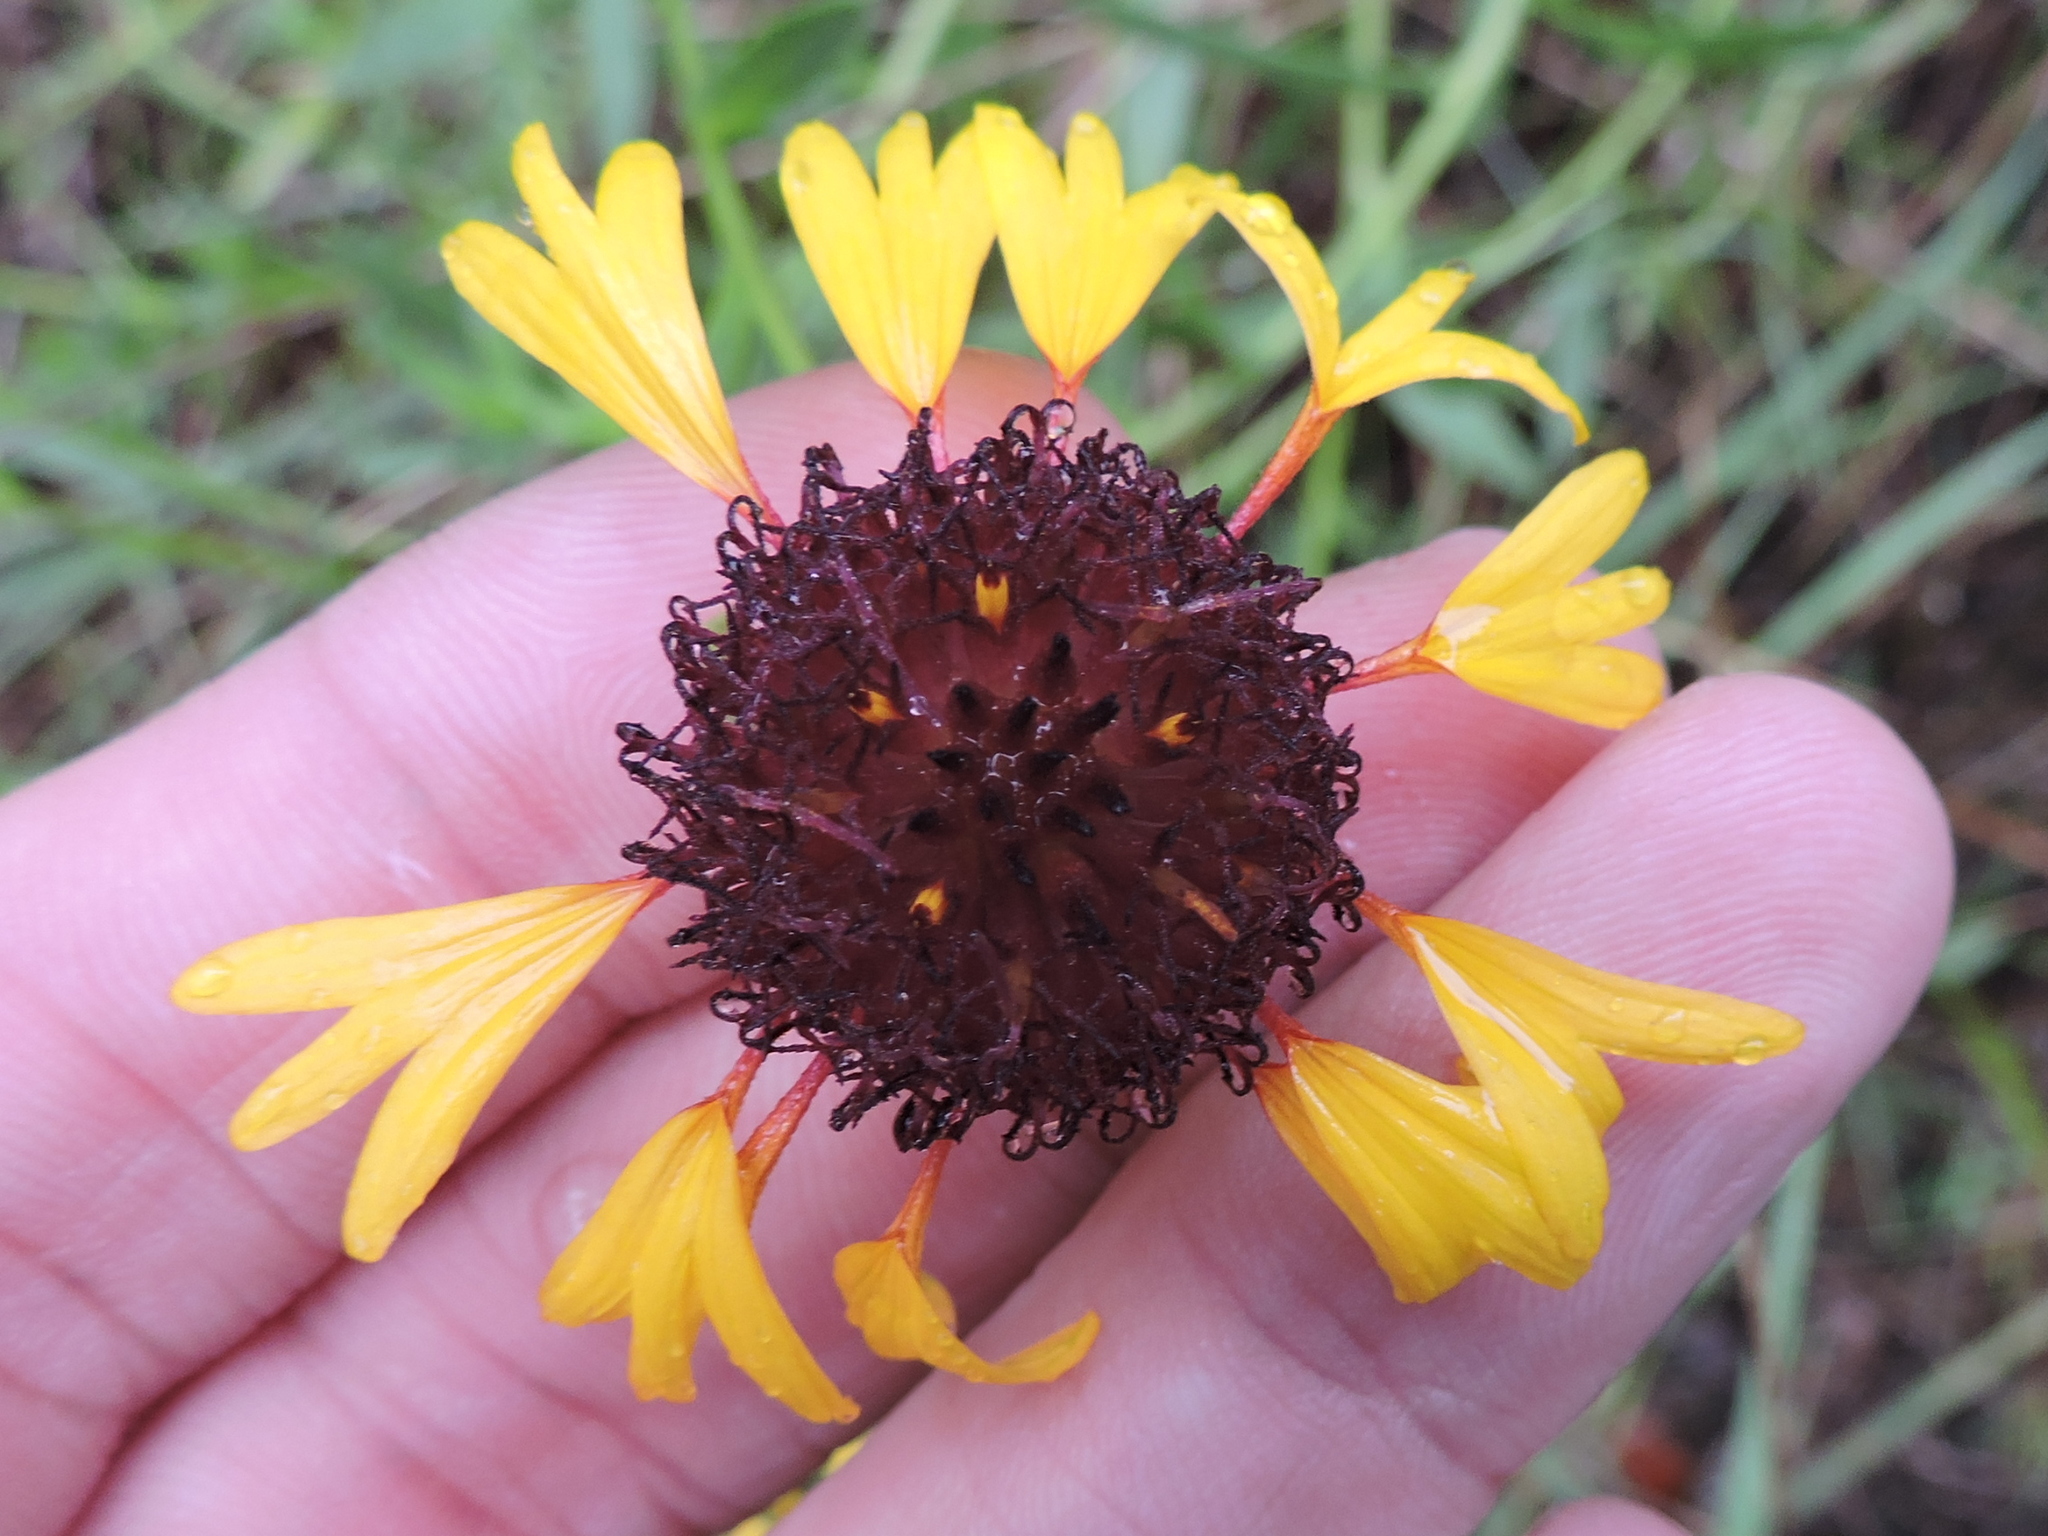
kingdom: Plantae
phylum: Tracheophyta
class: Magnoliopsida
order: Asterales
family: Asteraceae
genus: Gaillardia
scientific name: Gaillardia aestivalis
